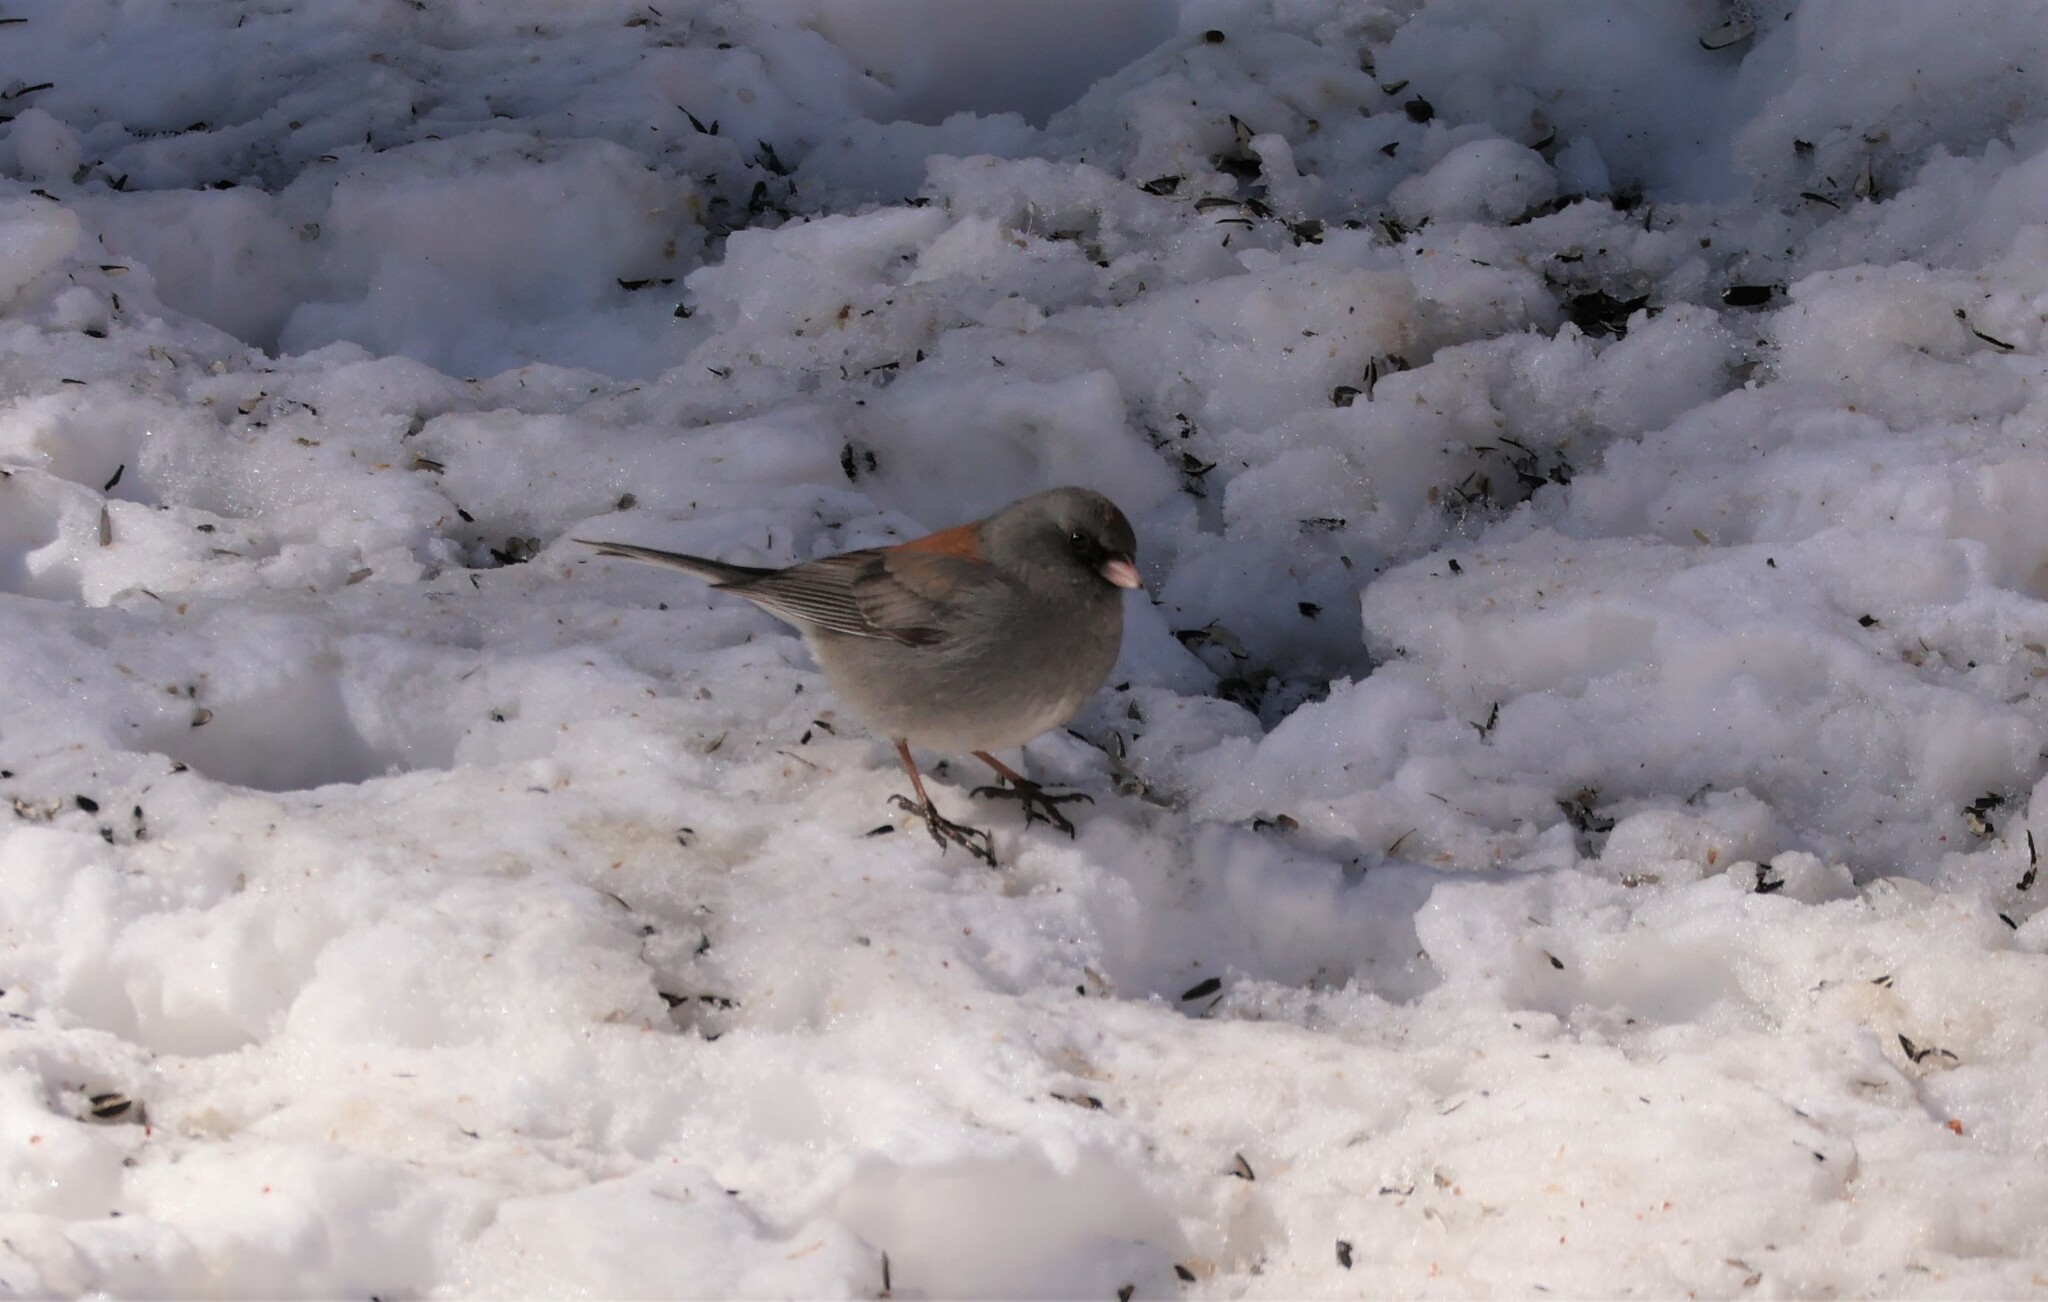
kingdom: Animalia
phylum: Chordata
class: Aves
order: Passeriformes
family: Passerellidae
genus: Junco
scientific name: Junco hyemalis
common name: Dark-eyed junco
